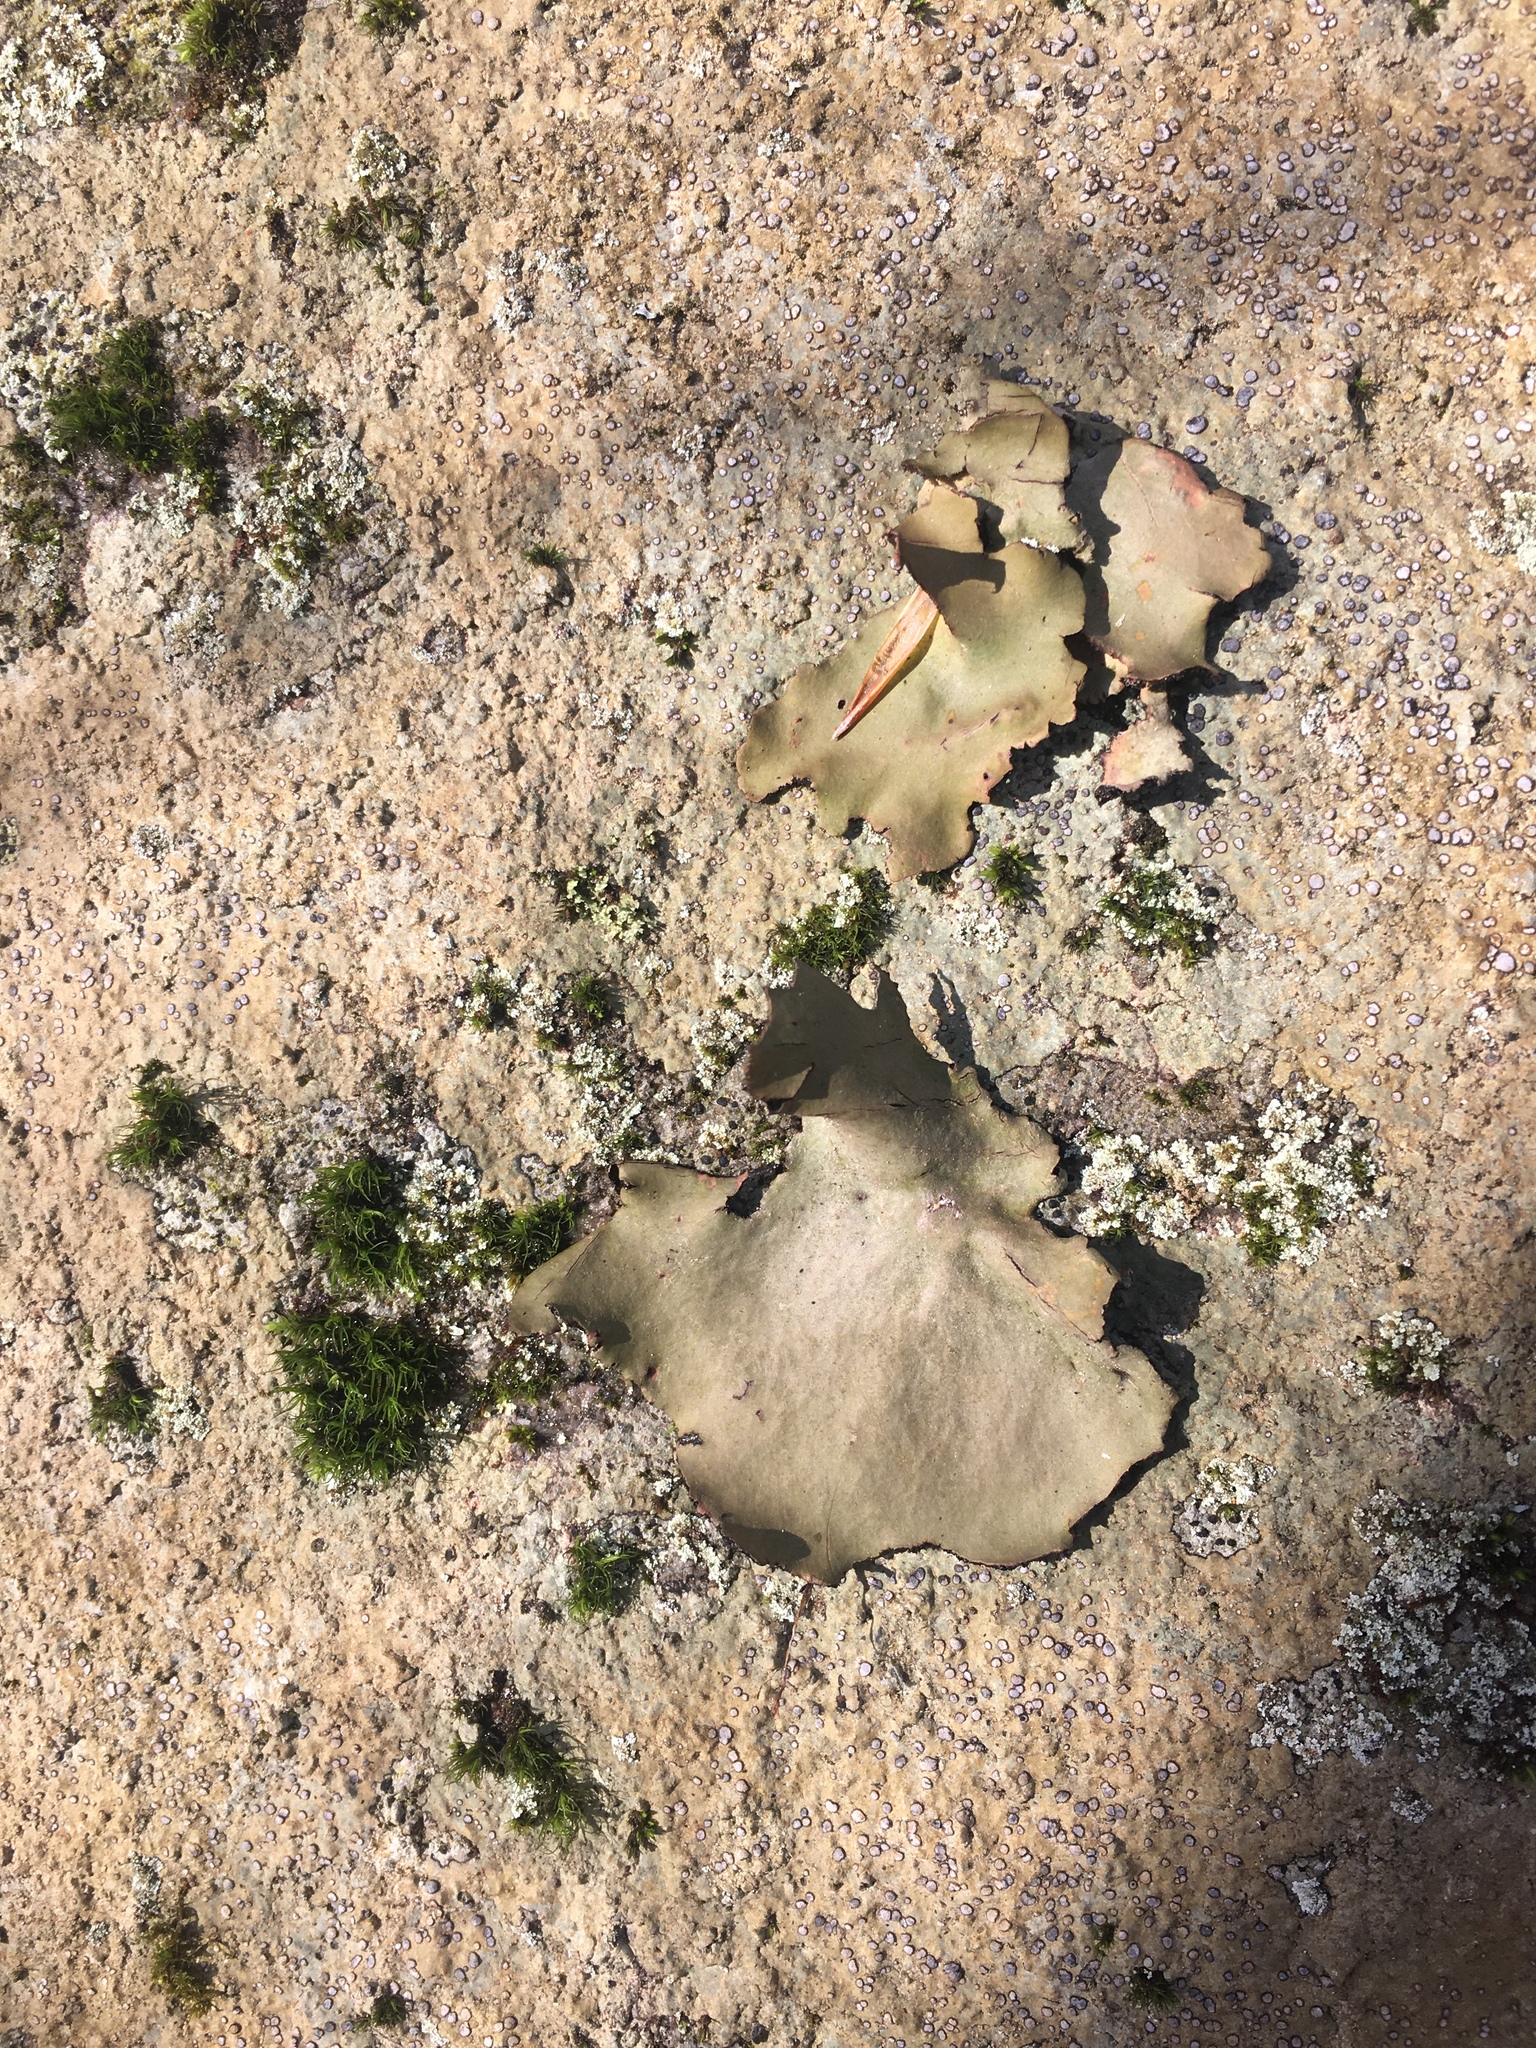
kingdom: Fungi
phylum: Ascomycota
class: Lecanoromycetes
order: Umbilicariales
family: Umbilicariaceae
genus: Umbilicaria
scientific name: Umbilicaria mammulata
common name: Smooth rock tripe
